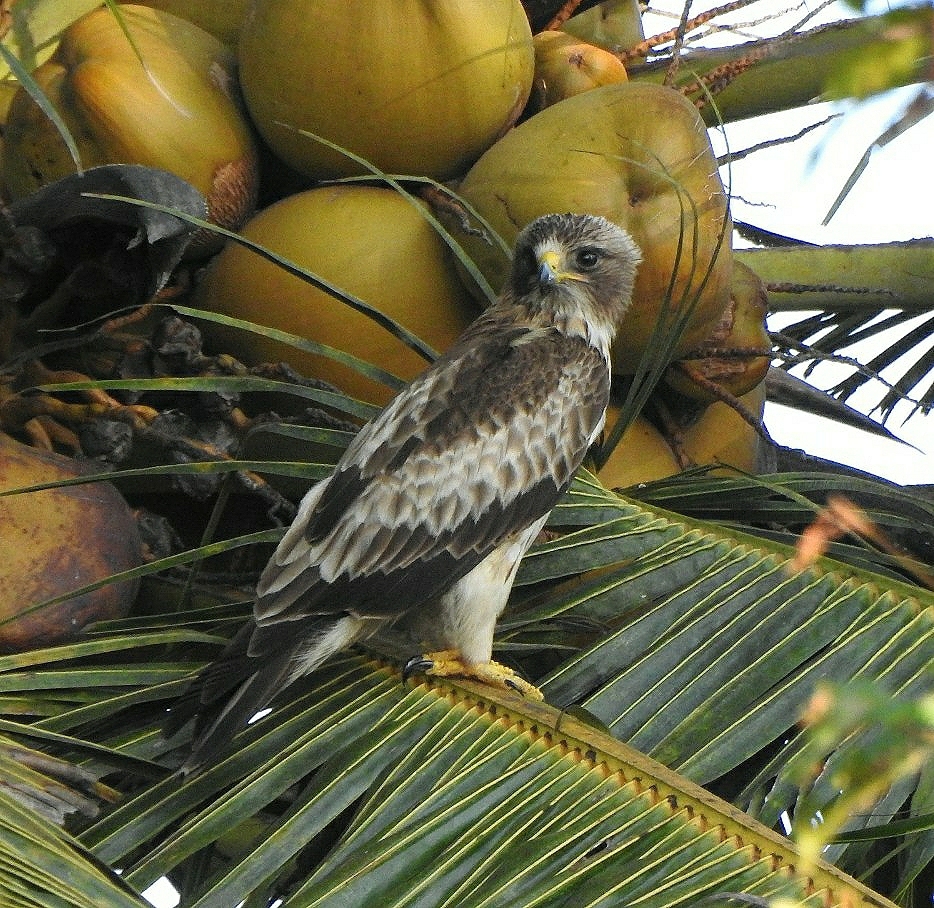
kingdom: Animalia
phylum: Chordata
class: Aves
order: Accipitriformes
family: Accipitridae
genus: Hieraaetus
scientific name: Hieraaetus pennatus
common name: Booted eagle
